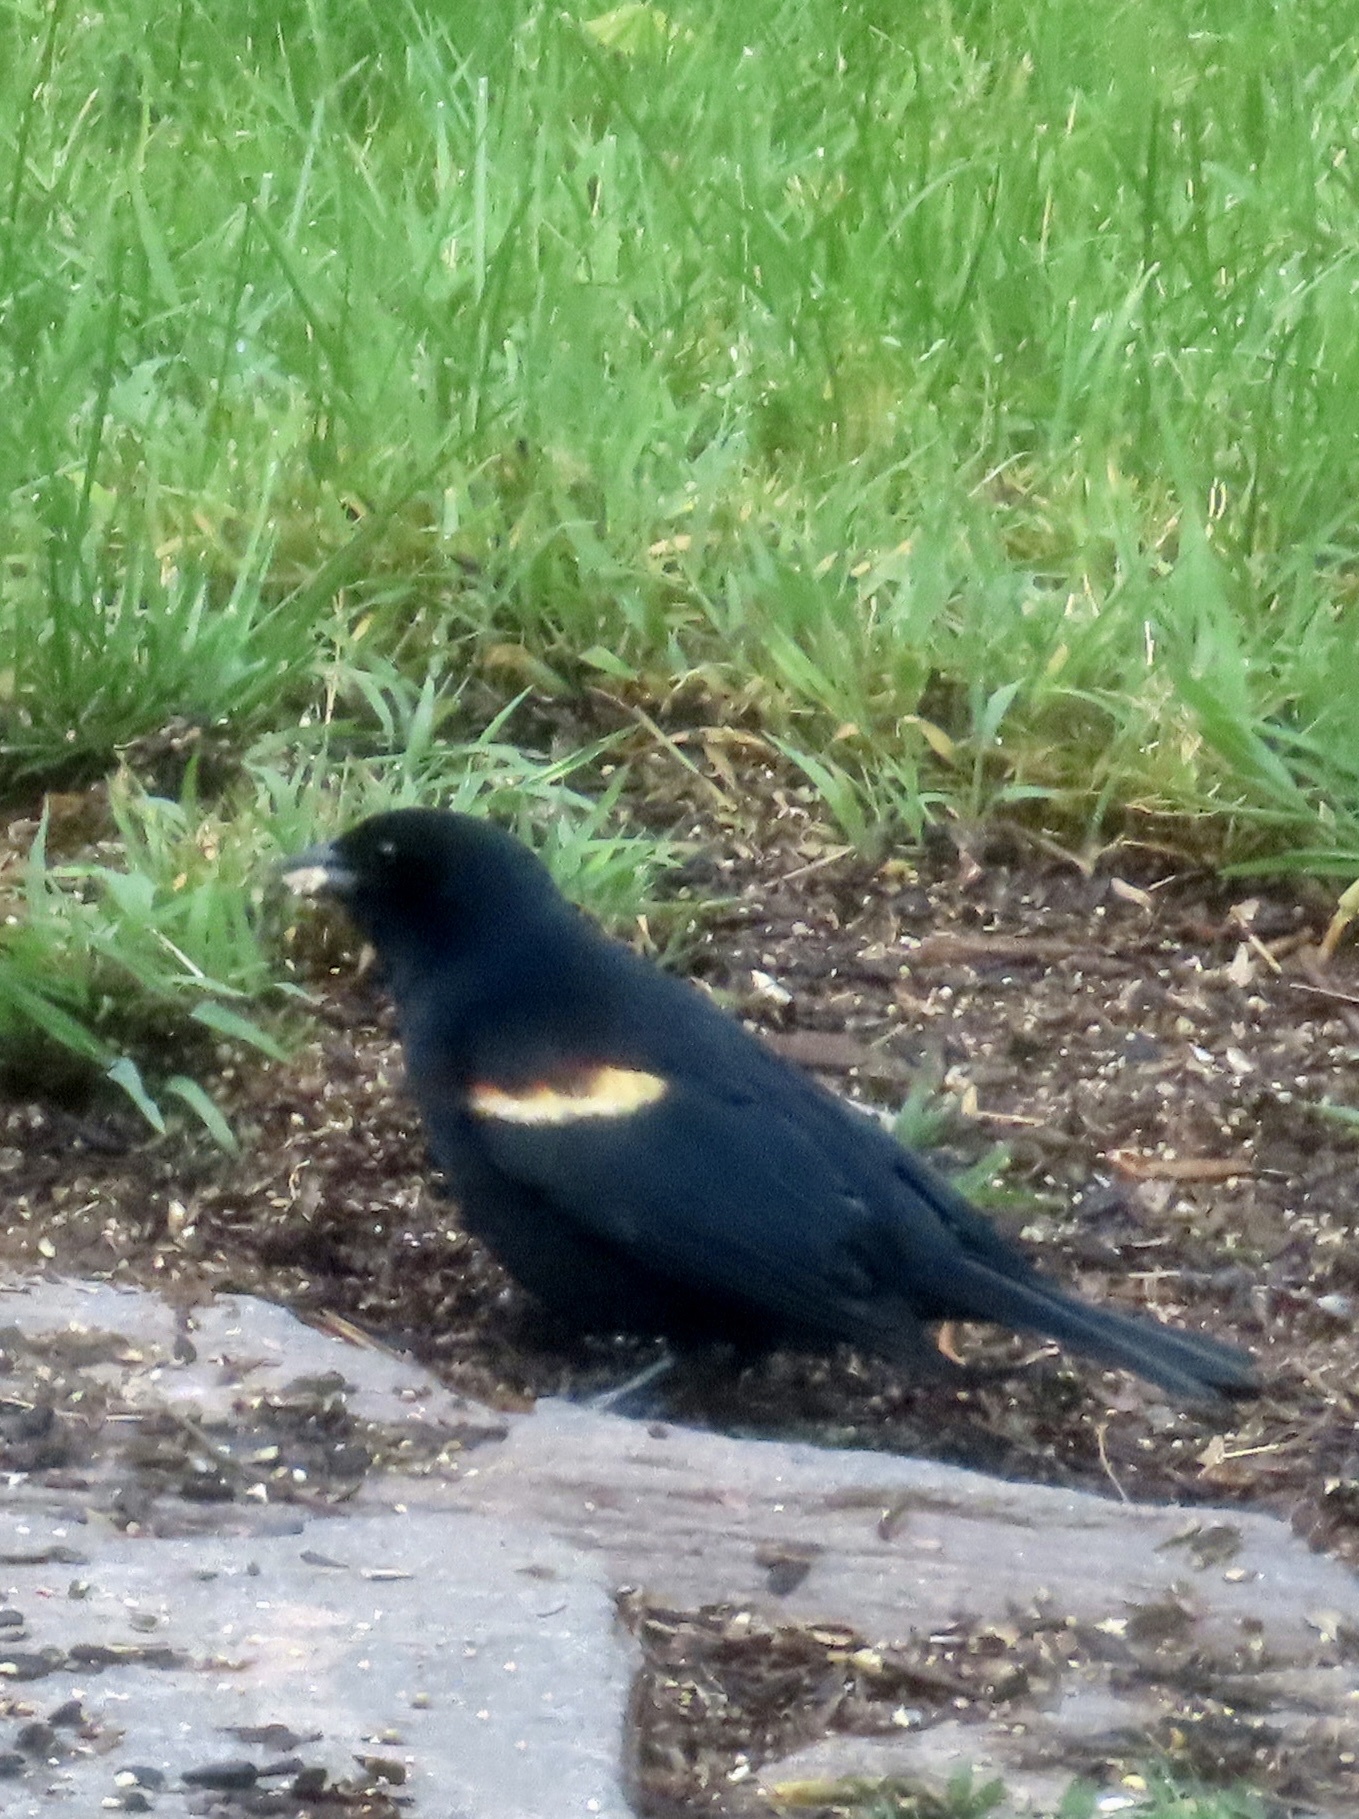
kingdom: Animalia
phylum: Chordata
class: Aves
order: Passeriformes
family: Icteridae
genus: Agelaius
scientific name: Agelaius phoeniceus
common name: Red-winged blackbird
